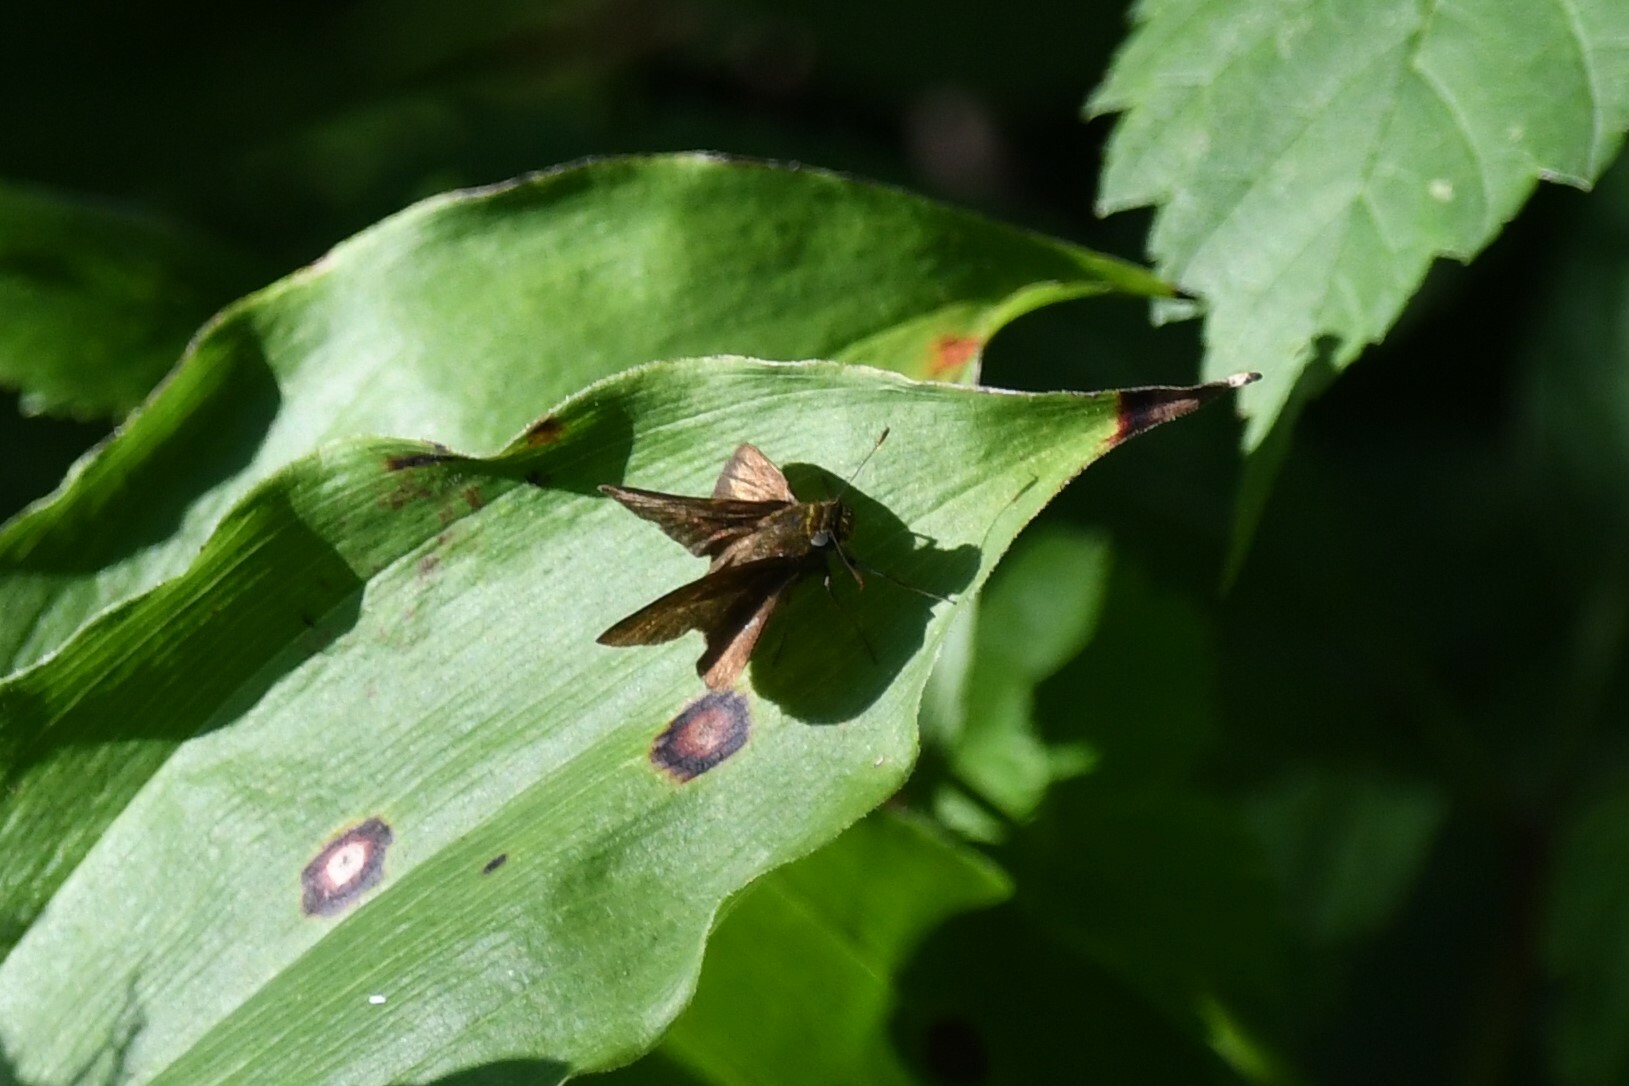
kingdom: Animalia
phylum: Arthropoda
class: Insecta
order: Lepidoptera
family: Hesperiidae
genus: Euphyes
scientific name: Euphyes vestris
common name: Dun skipper
